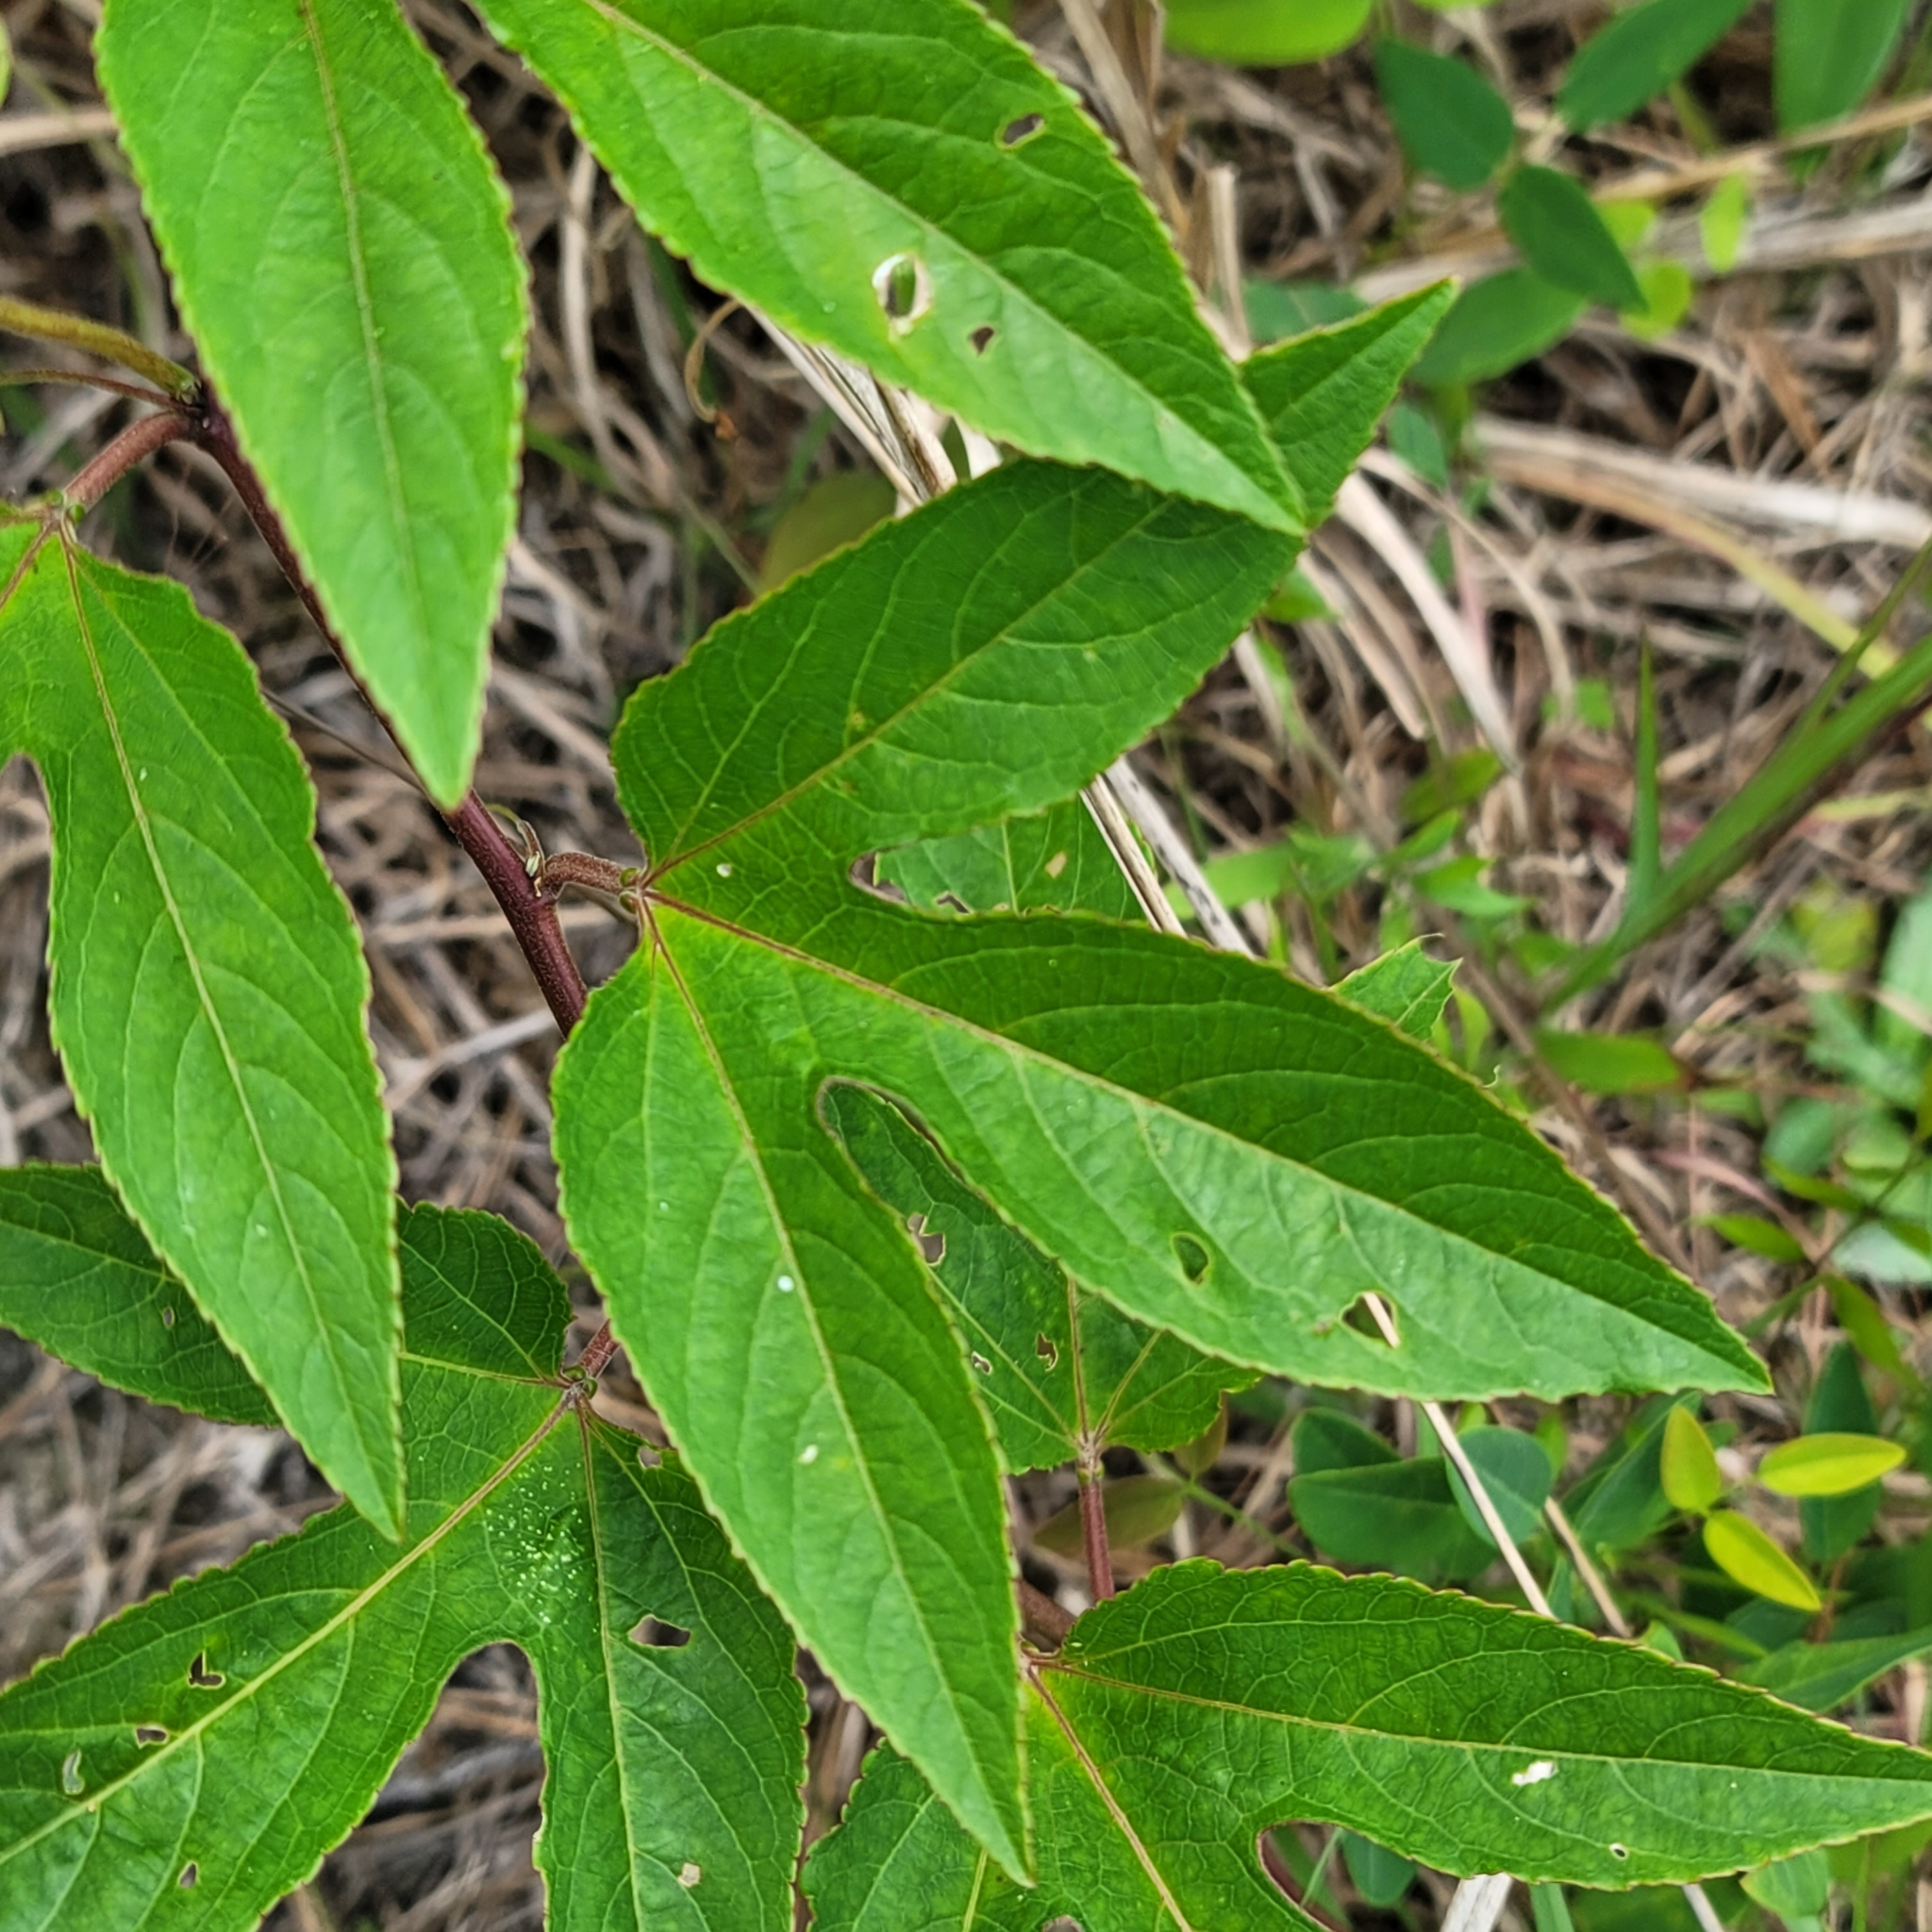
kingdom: Plantae
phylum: Tracheophyta
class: Magnoliopsida
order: Malpighiales
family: Passifloraceae
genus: Passiflora
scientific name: Passiflora incarnata
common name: Apricot-vine
